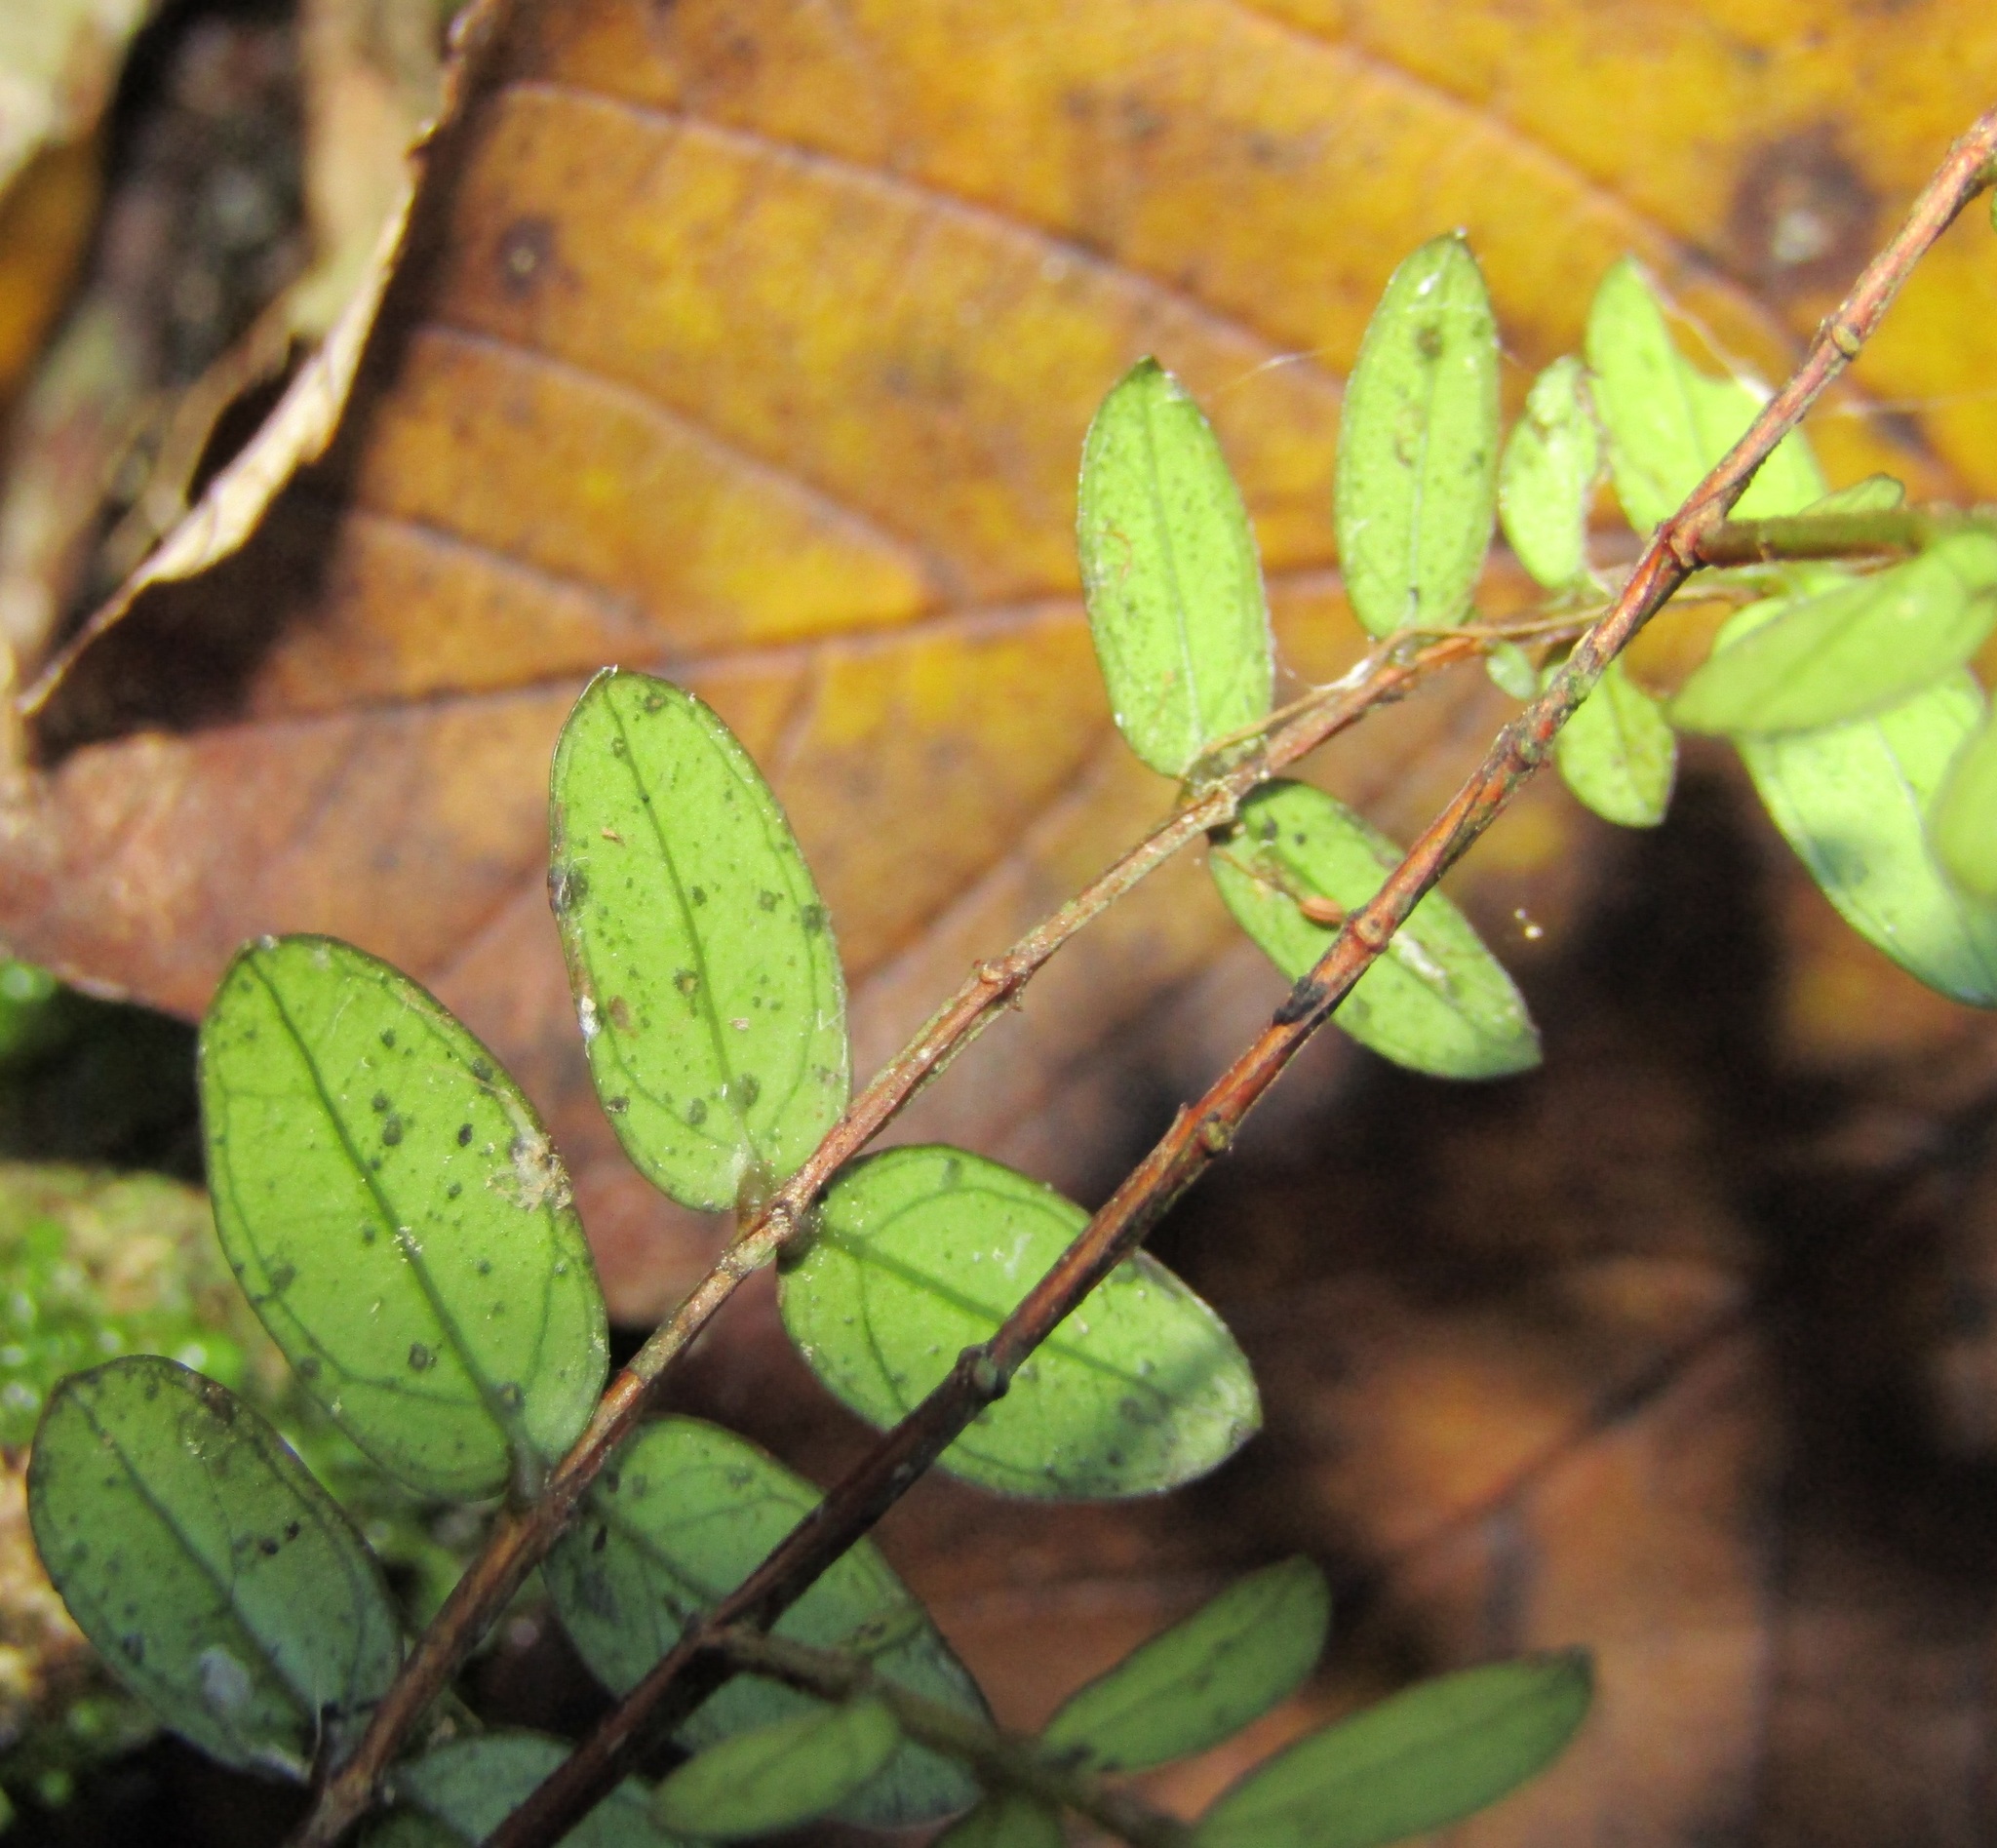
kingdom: Plantae
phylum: Tracheophyta
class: Magnoliopsida
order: Myrtales
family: Myrtaceae
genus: Metrosideros
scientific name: Metrosideros diffusa
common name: Small ratavine
